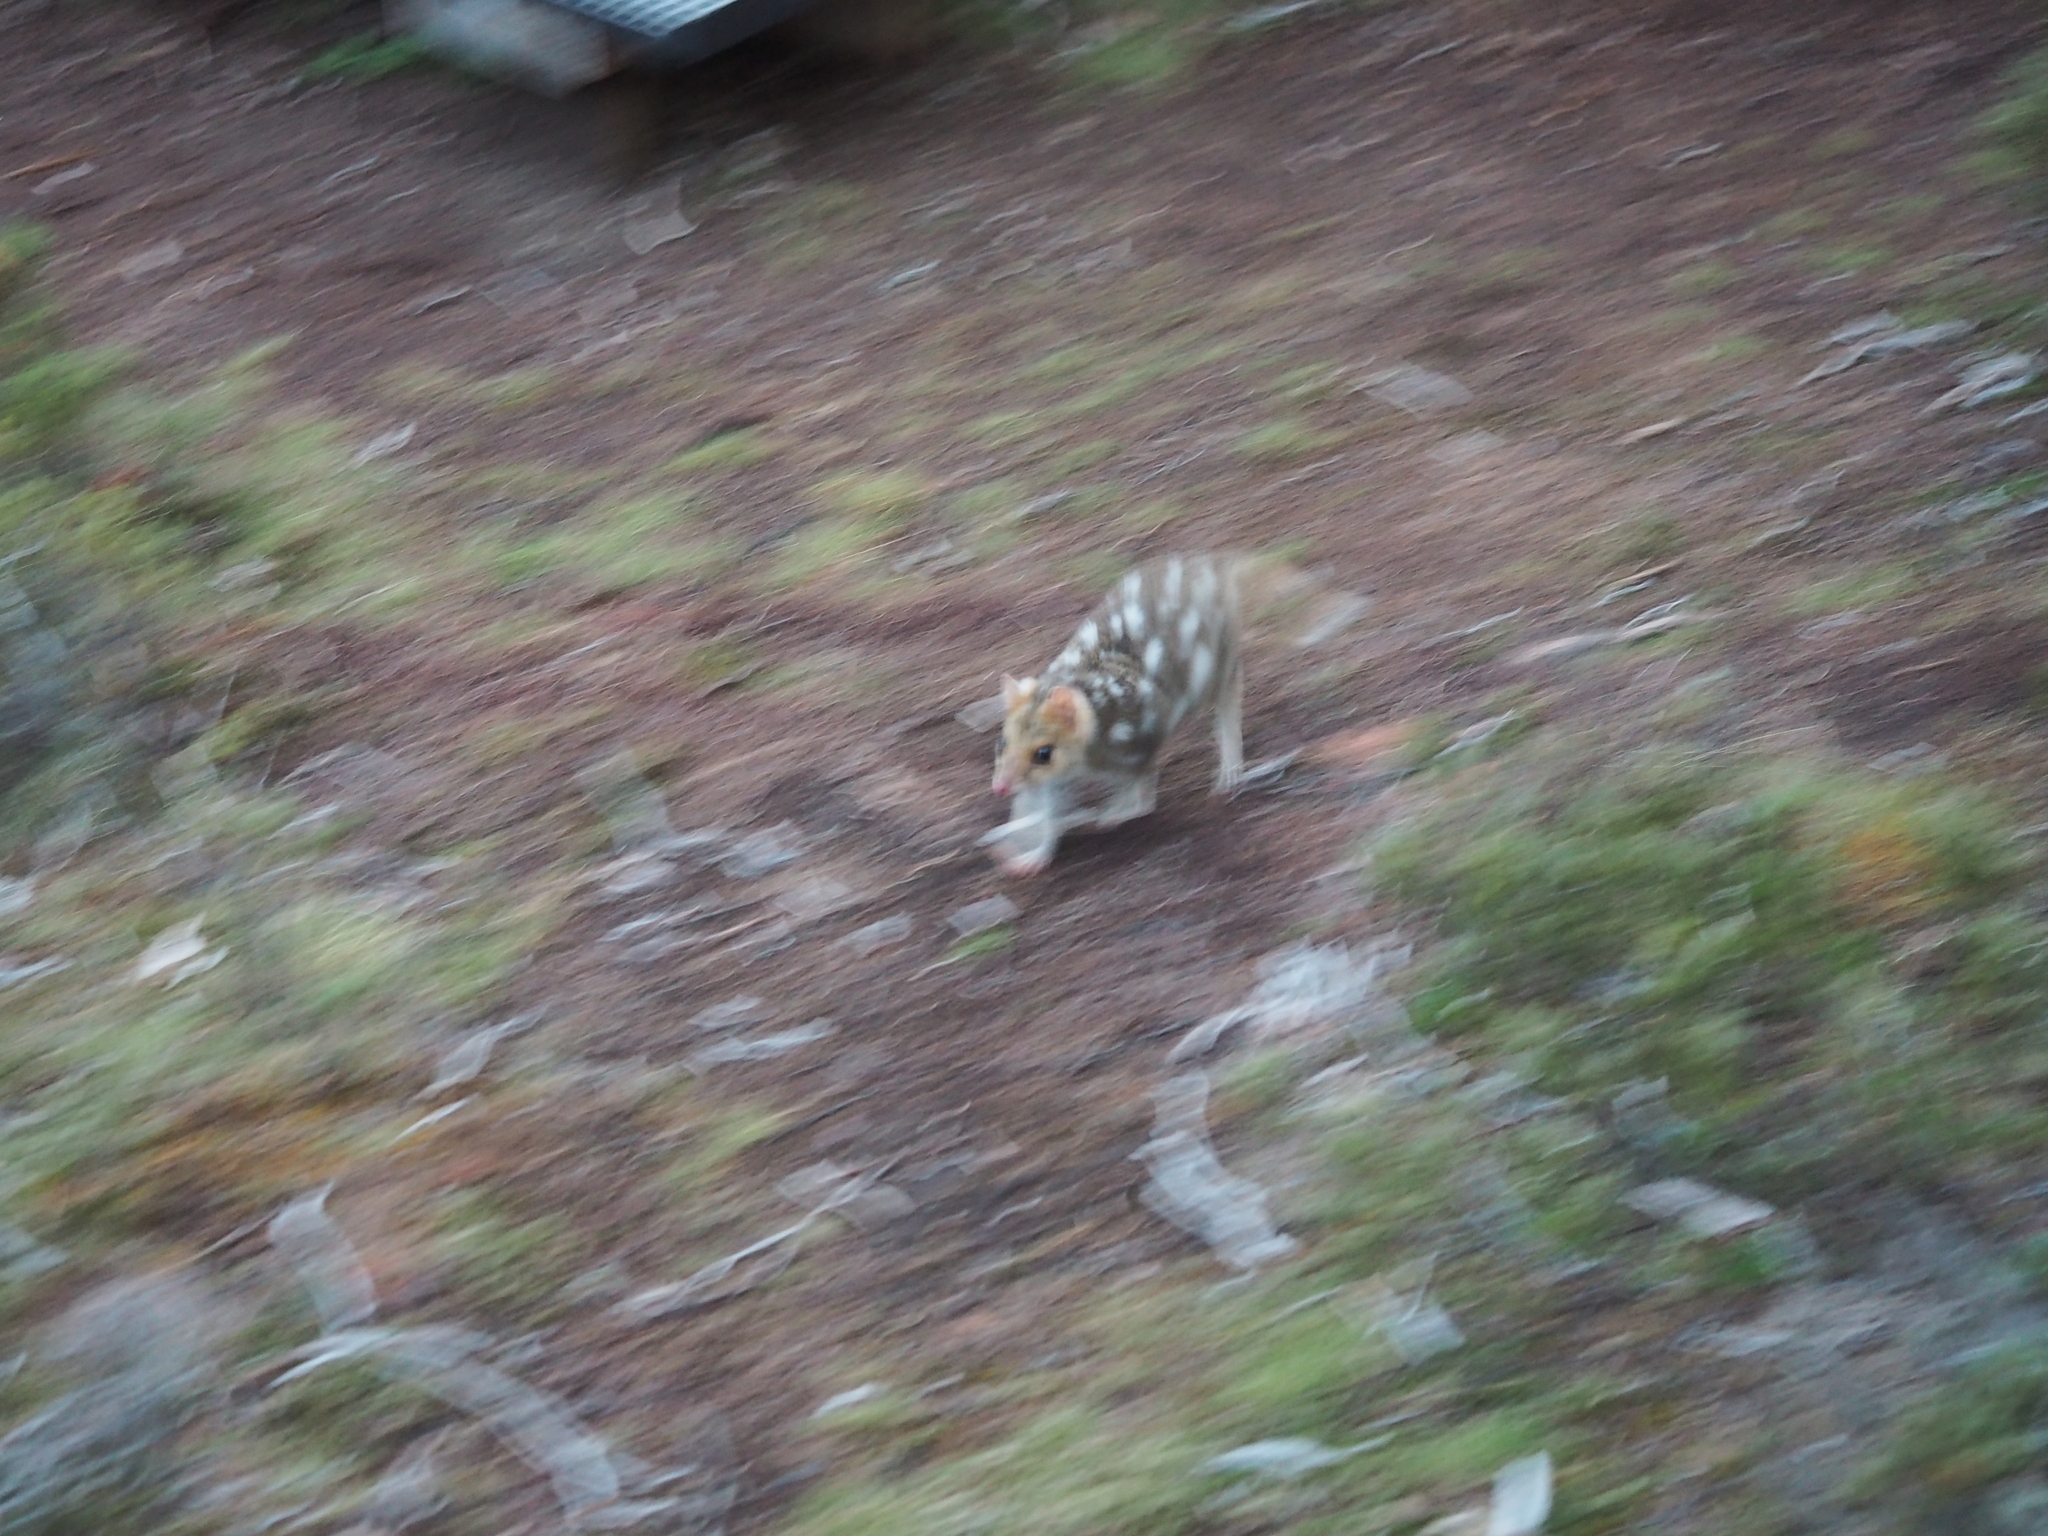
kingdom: Animalia
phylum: Chordata
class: Mammalia
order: Dasyuromorphia
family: Dasyuridae
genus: Dasyurus
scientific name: Dasyurus viverrinus
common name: Eastern quoll
